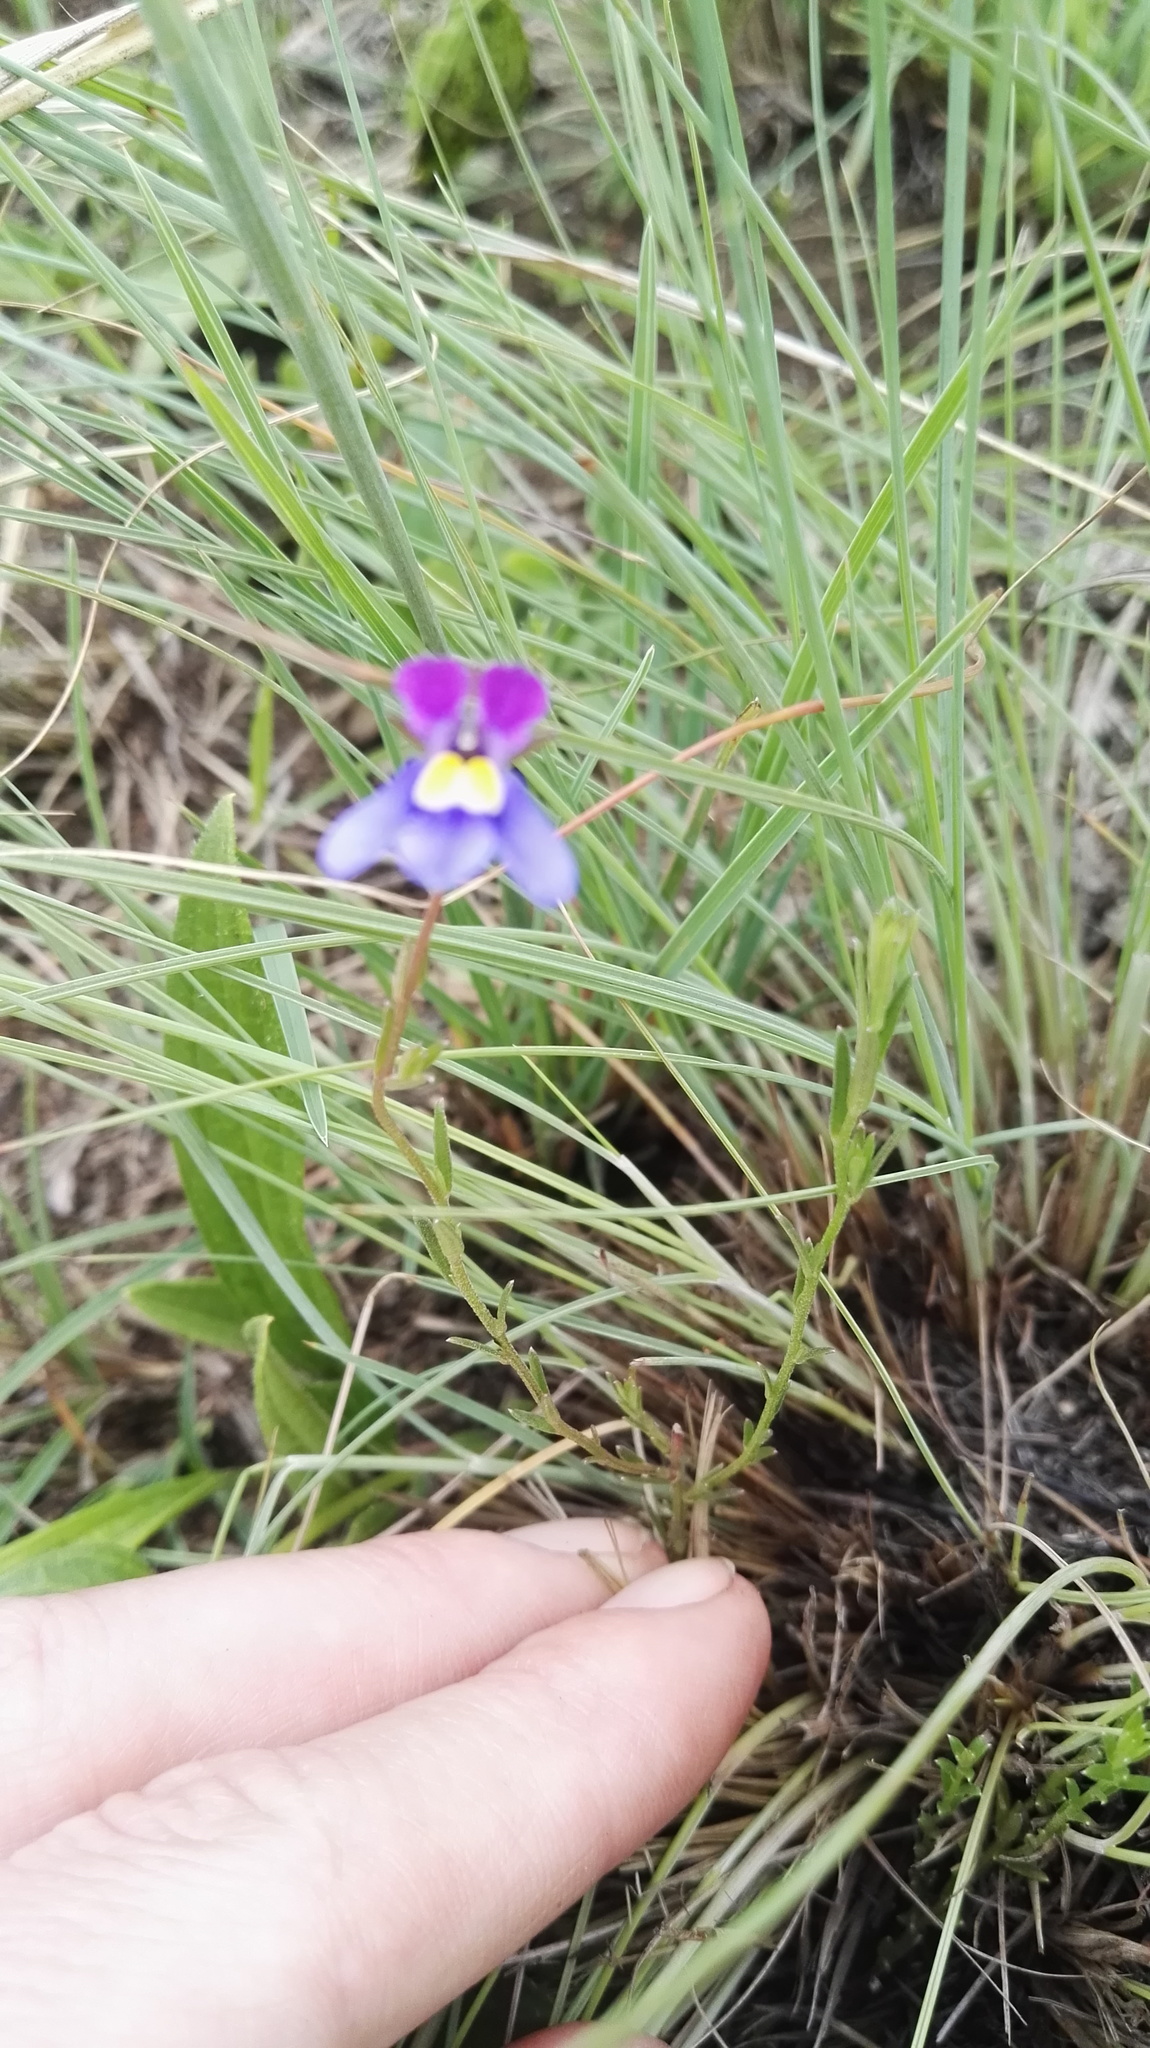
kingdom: Plantae
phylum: Tracheophyta
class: Magnoliopsida
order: Asterales
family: Campanulaceae
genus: Monopsis
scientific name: Monopsis decipiens
